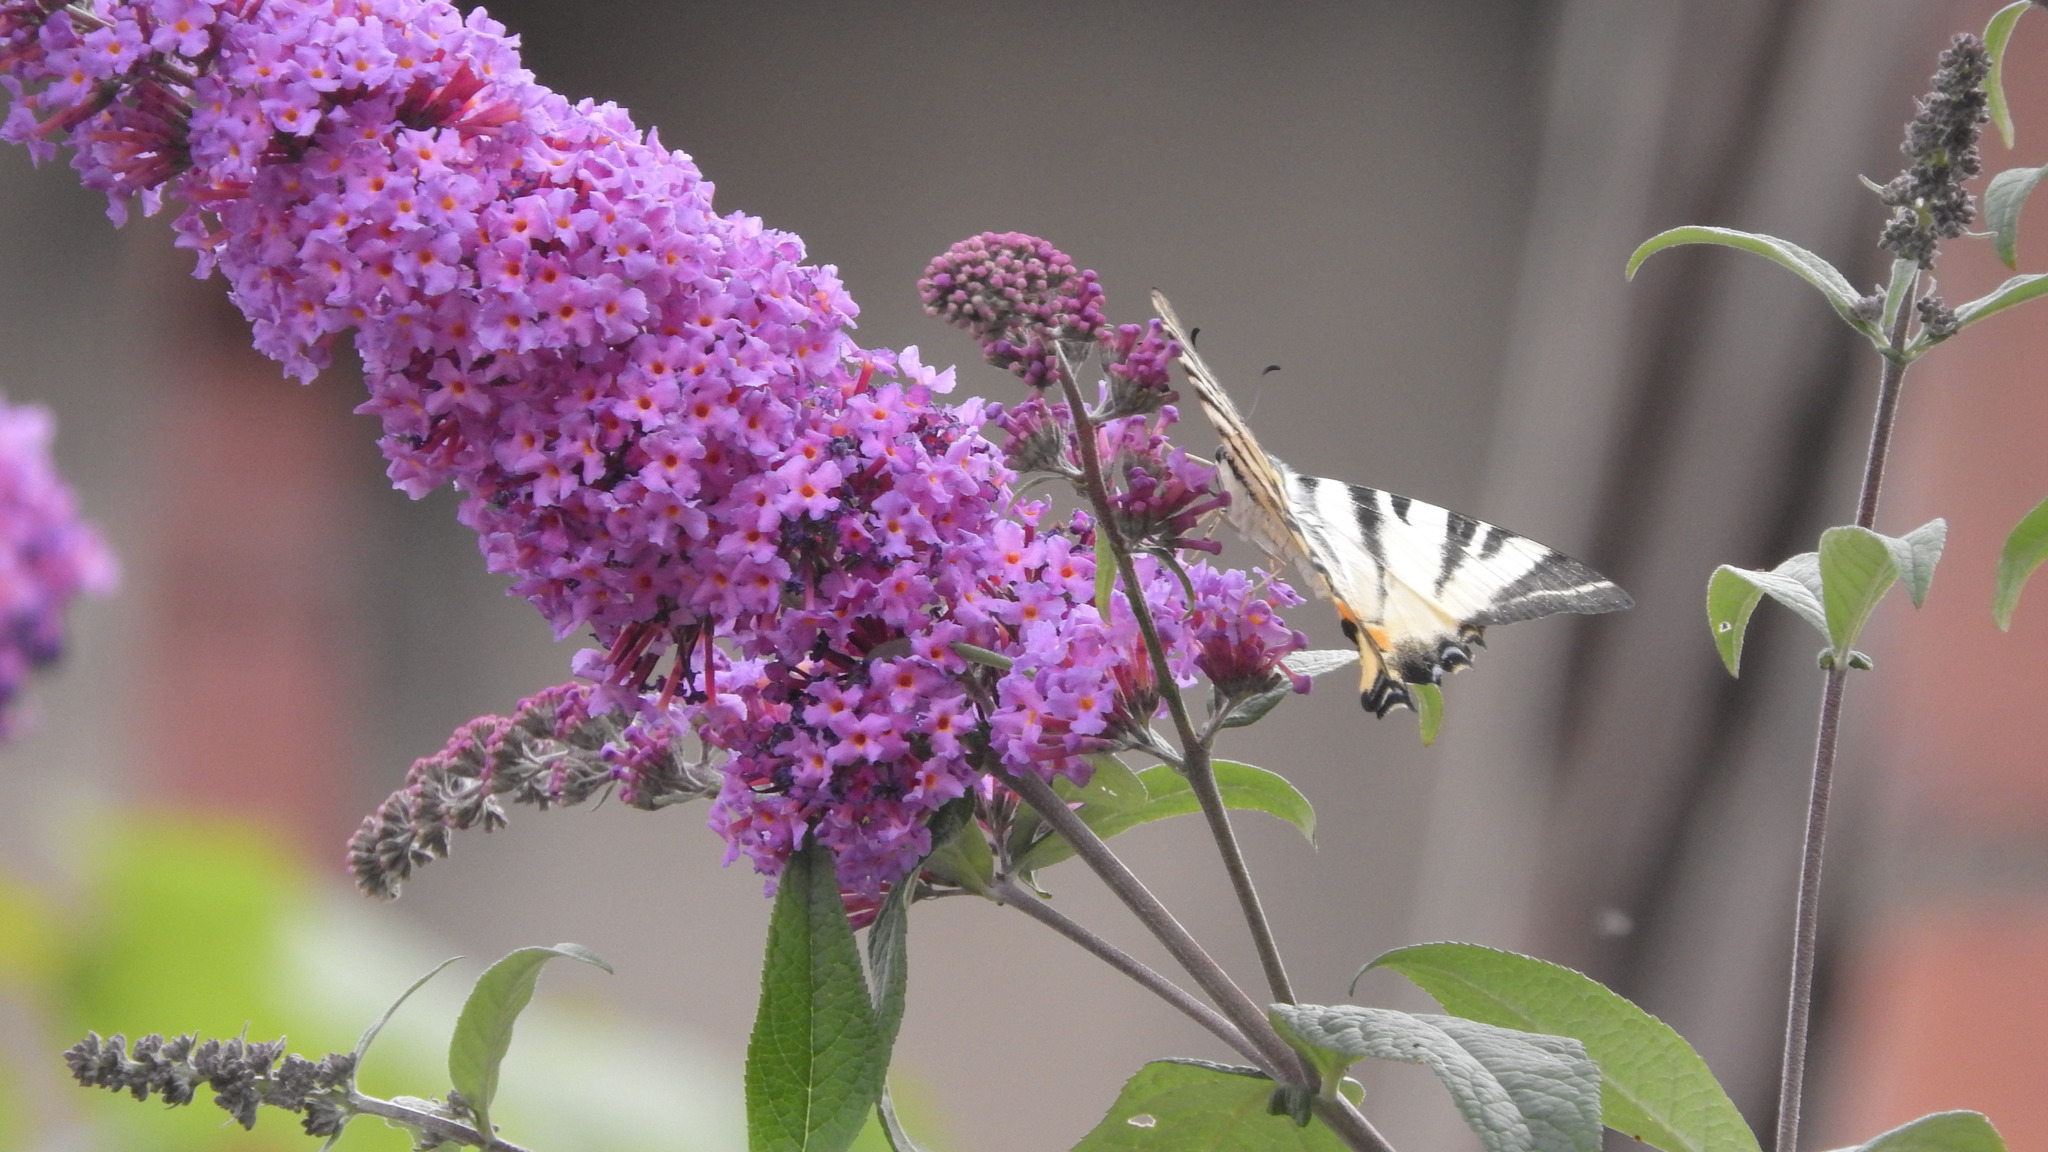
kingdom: Animalia
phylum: Arthropoda
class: Insecta
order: Lepidoptera
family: Papilionidae
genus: Iphiclides
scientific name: Iphiclides podalirius
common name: Scarce swallowtail
